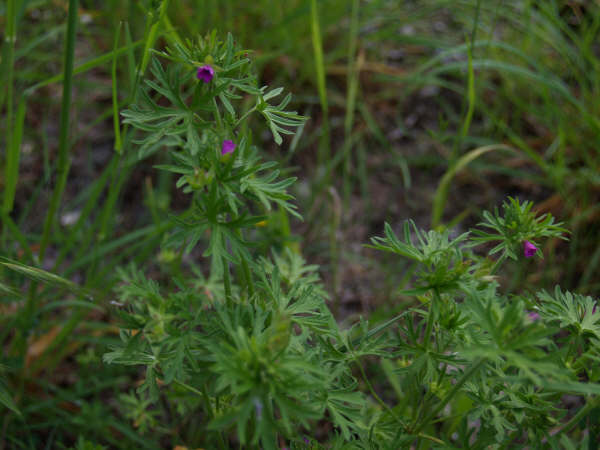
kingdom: Plantae
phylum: Tracheophyta
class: Magnoliopsida
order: Geraniales
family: Geraniaceae
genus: Geranium
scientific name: Geranium dissectum
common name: Cut-leaved crane's-bill
